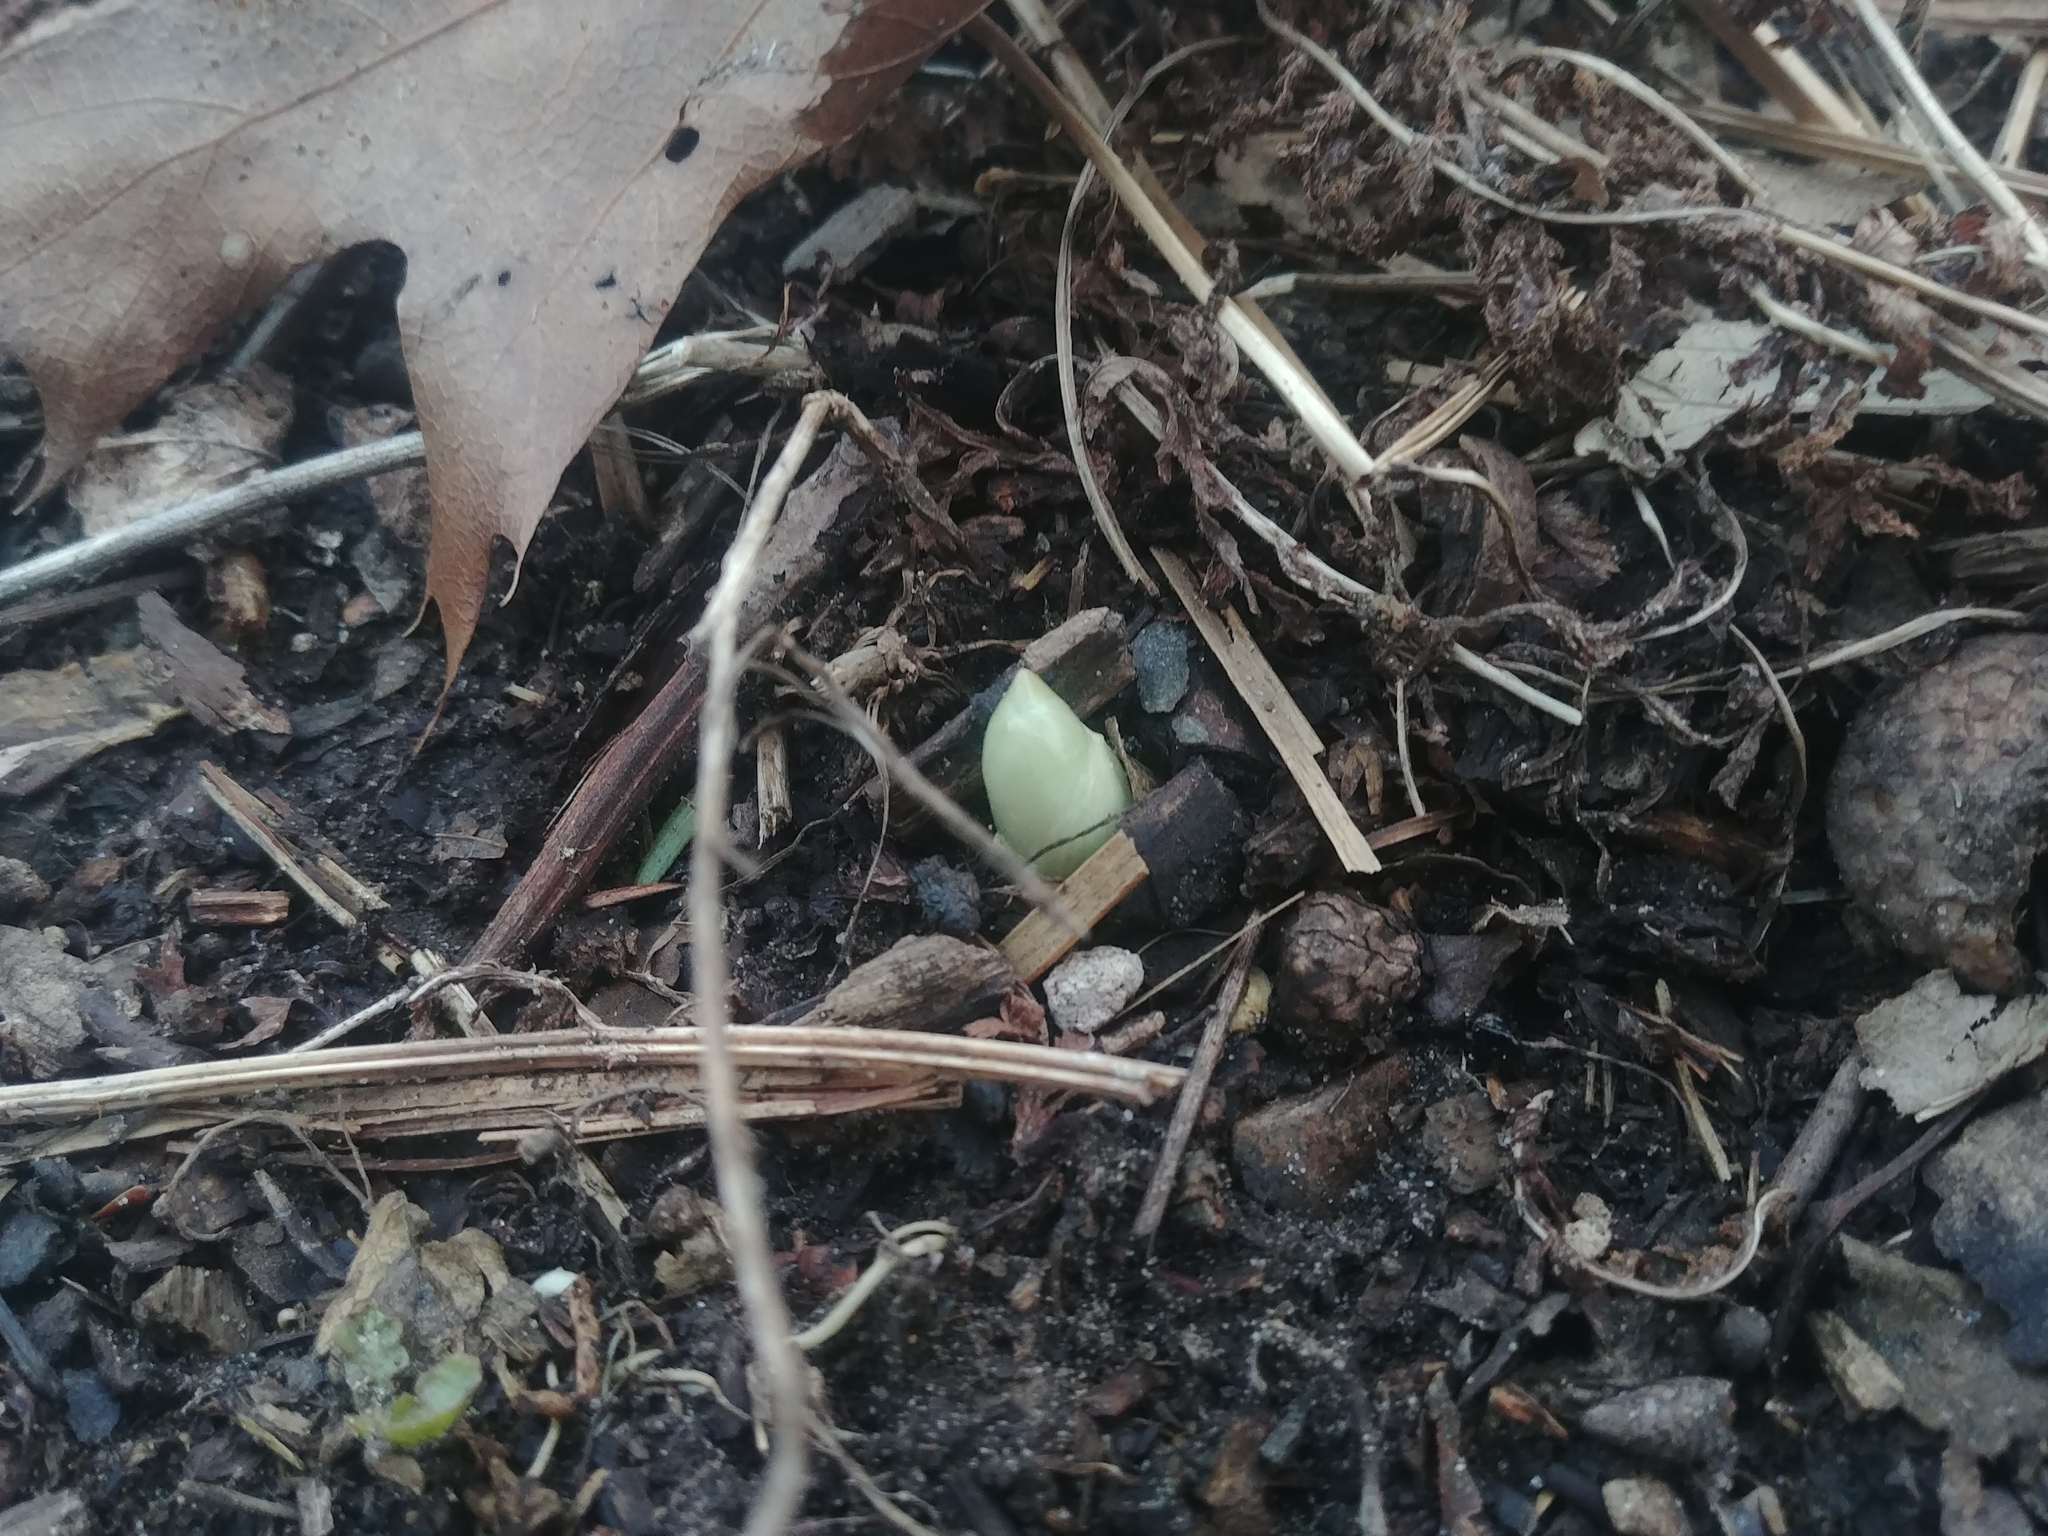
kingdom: Plantae
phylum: Tracheophyta
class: Magnoliopsida
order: Ranunculales
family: Berberidaceae
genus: Podophyllum
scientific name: Podophyllum peltatum
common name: Wild mandrake
